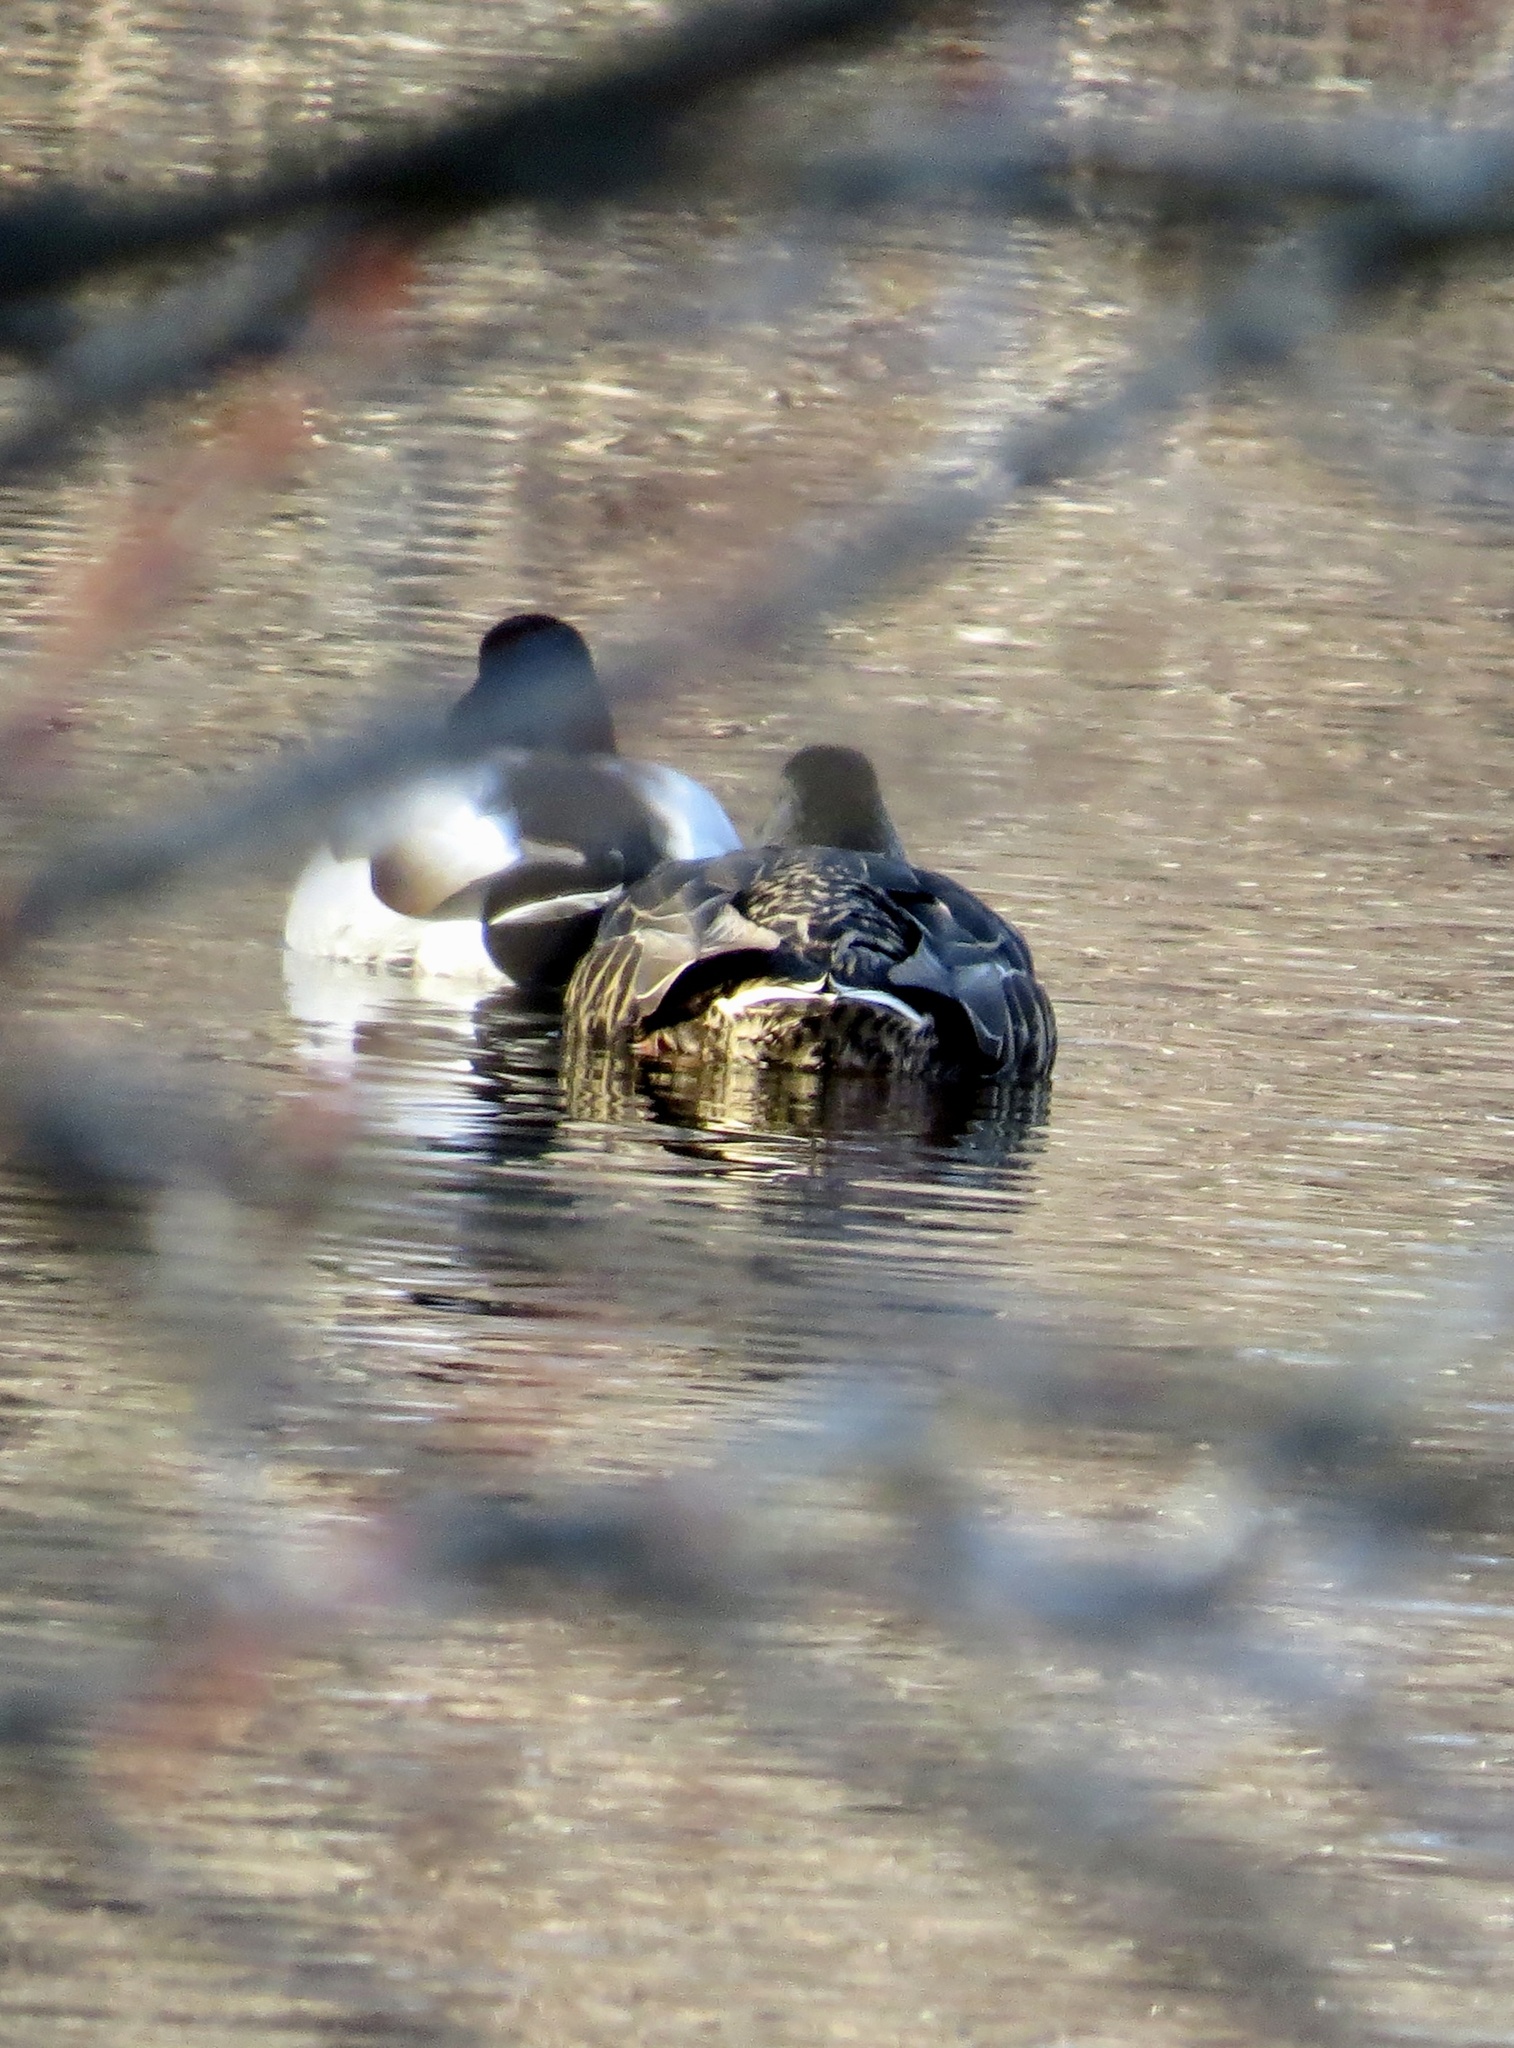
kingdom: Animalia
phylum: Chordata
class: Aves
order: Anseriformes
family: Anatidae
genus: Anas
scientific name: Anas platyrhynchos
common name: Mallard
